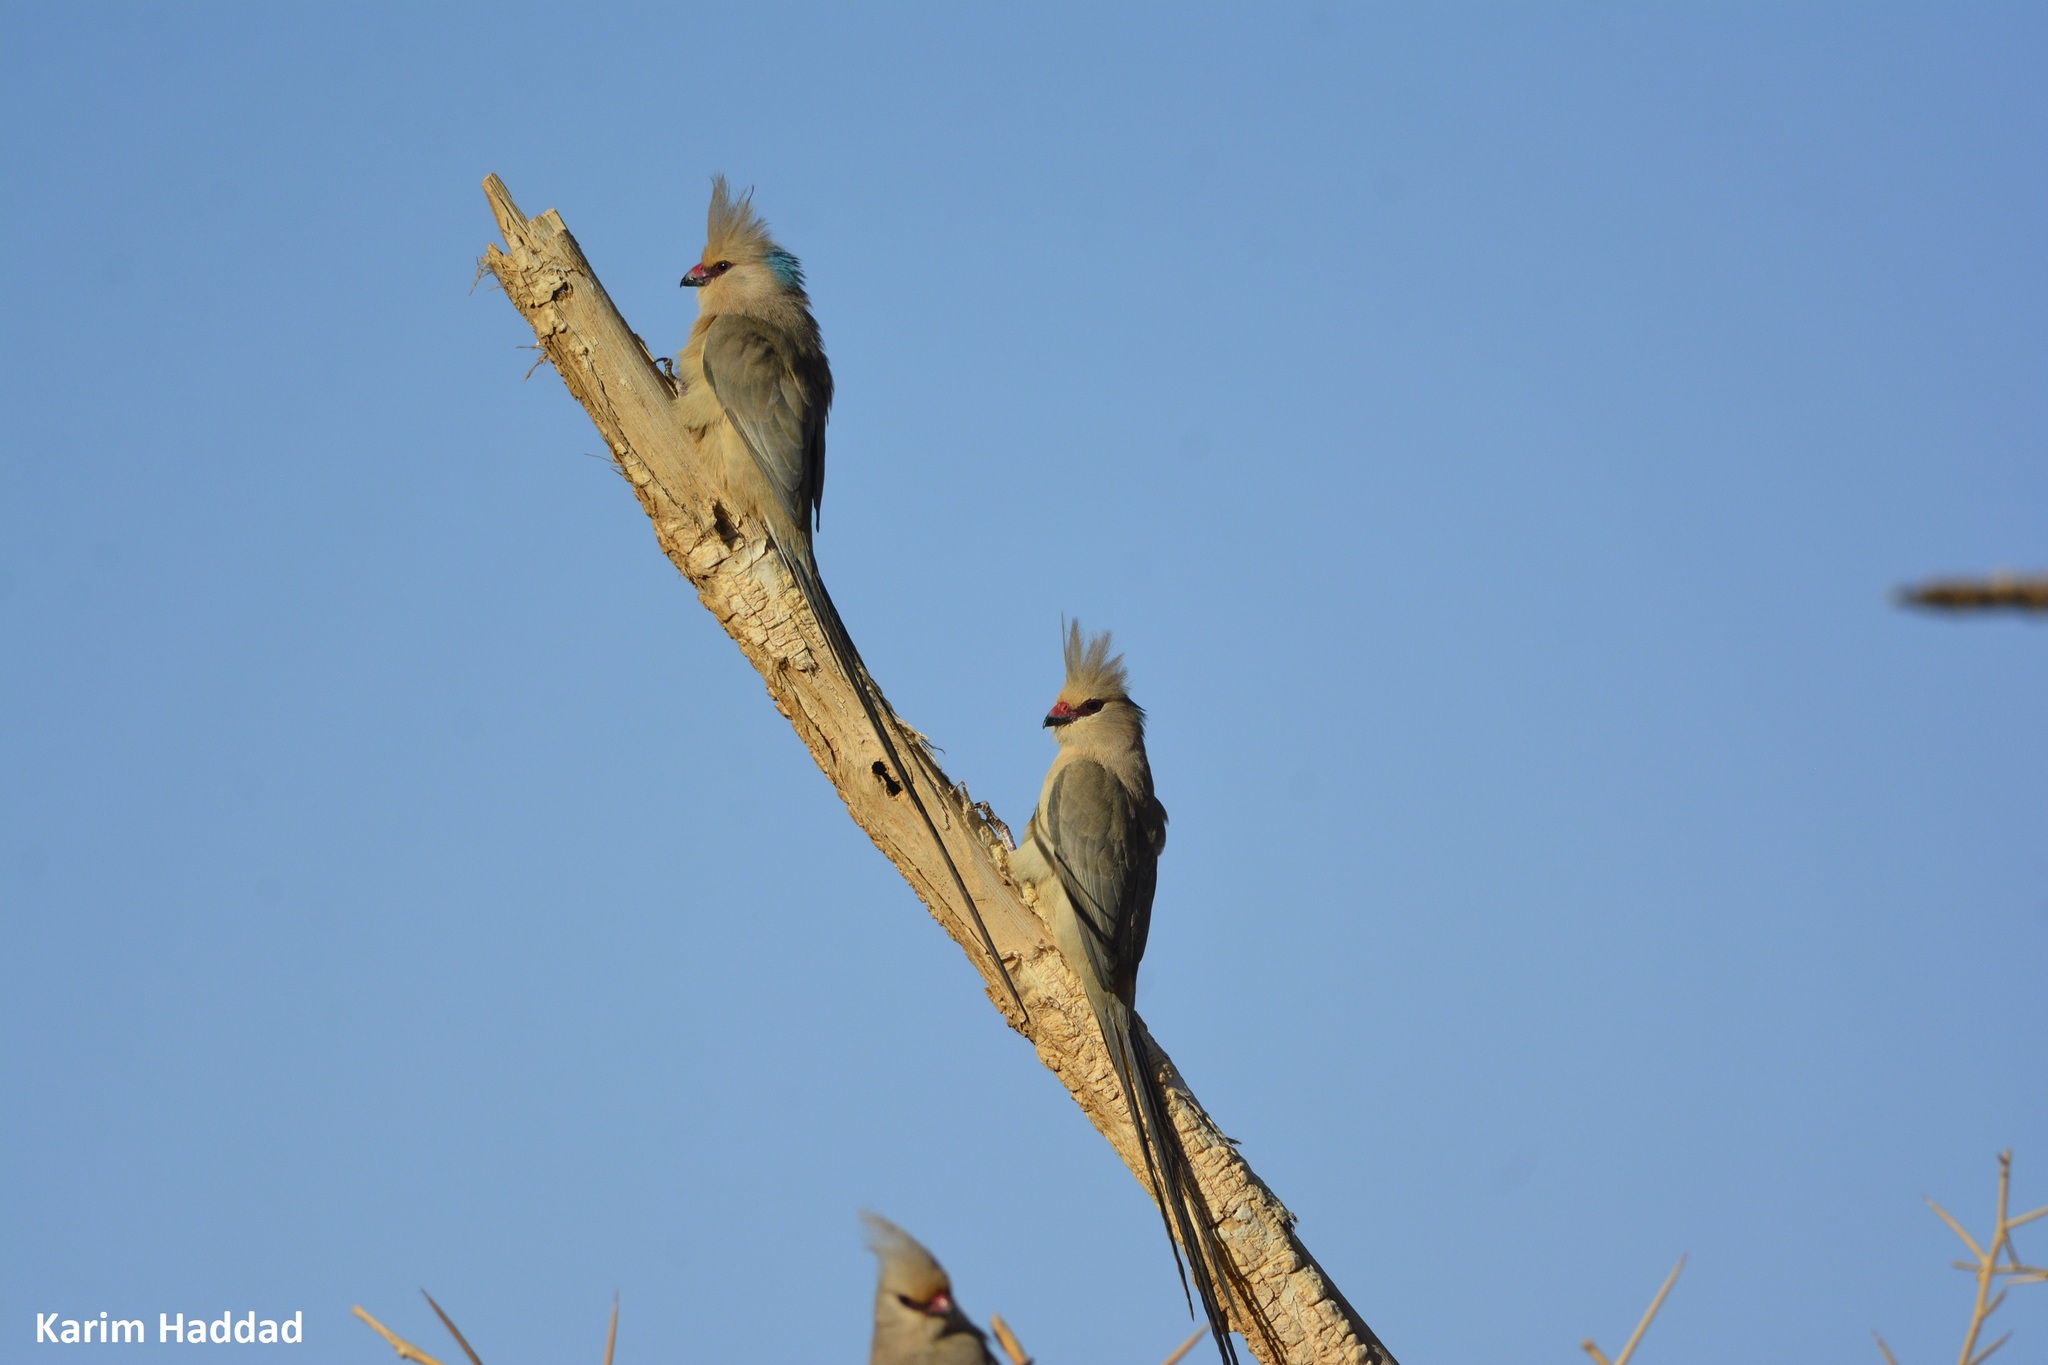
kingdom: Animalia
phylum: Chordata
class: Aves
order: Coliiformes
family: Coliidae
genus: Urocolius
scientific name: Urocolius macrourus
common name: Blue-naped mousebird
